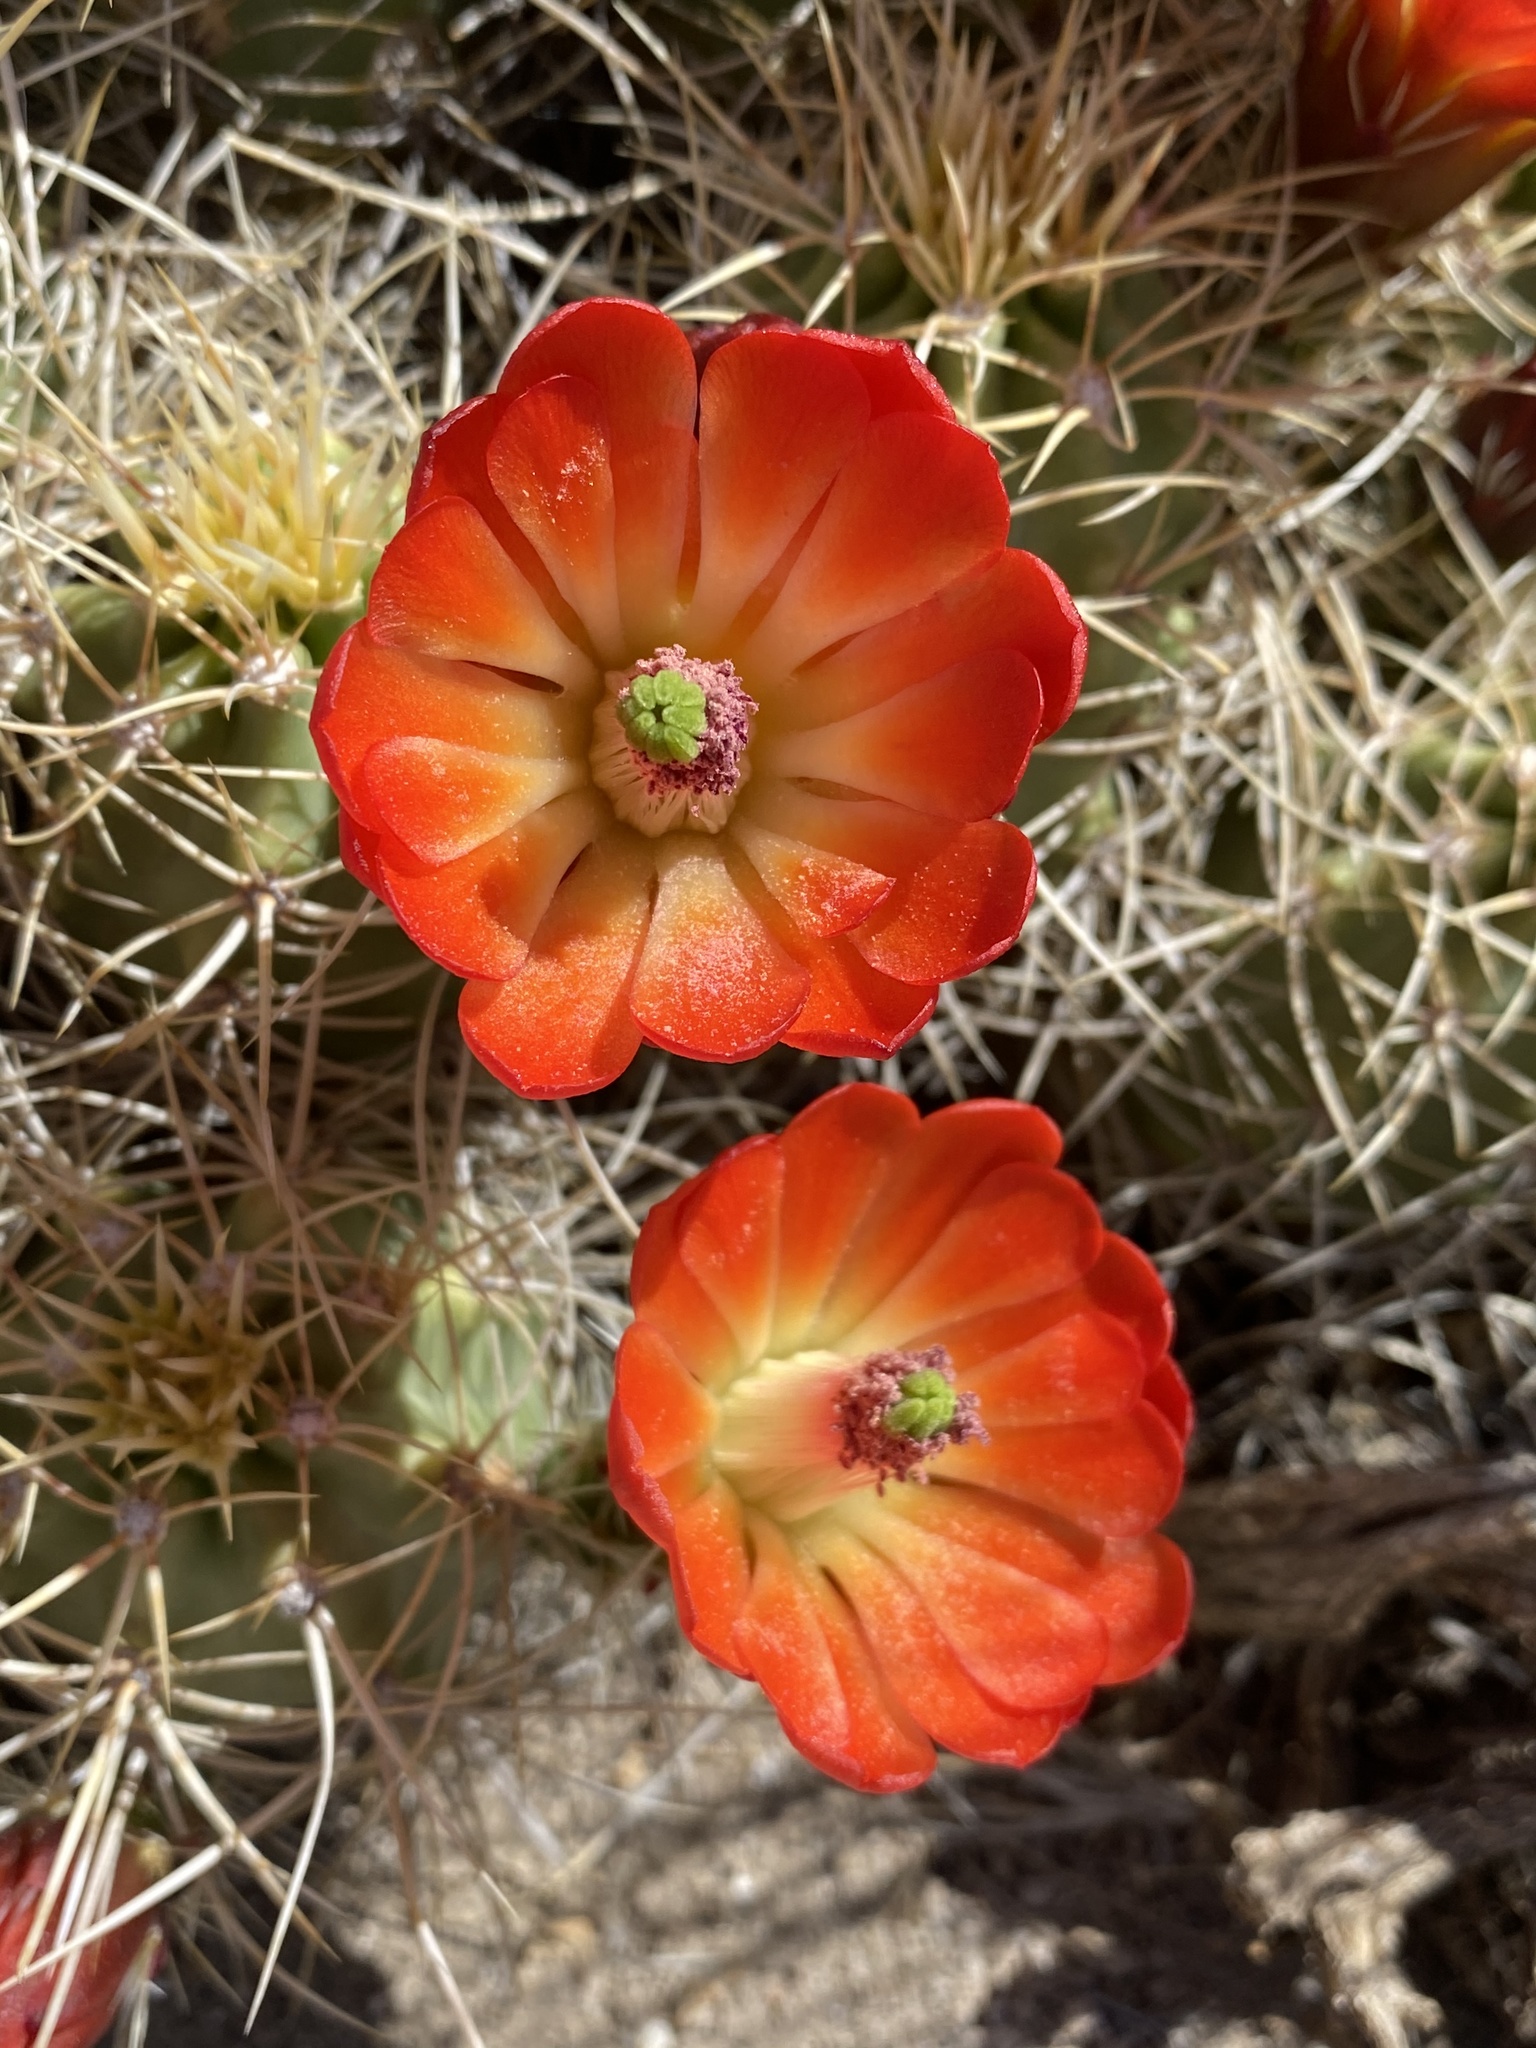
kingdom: Plantae
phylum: Tracheophyta
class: Magnoliopsida
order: Caryophyllales
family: Cactaceae
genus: Echinocereus
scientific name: Echinocereus triglochidiatus
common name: Claretcup hedgehog
